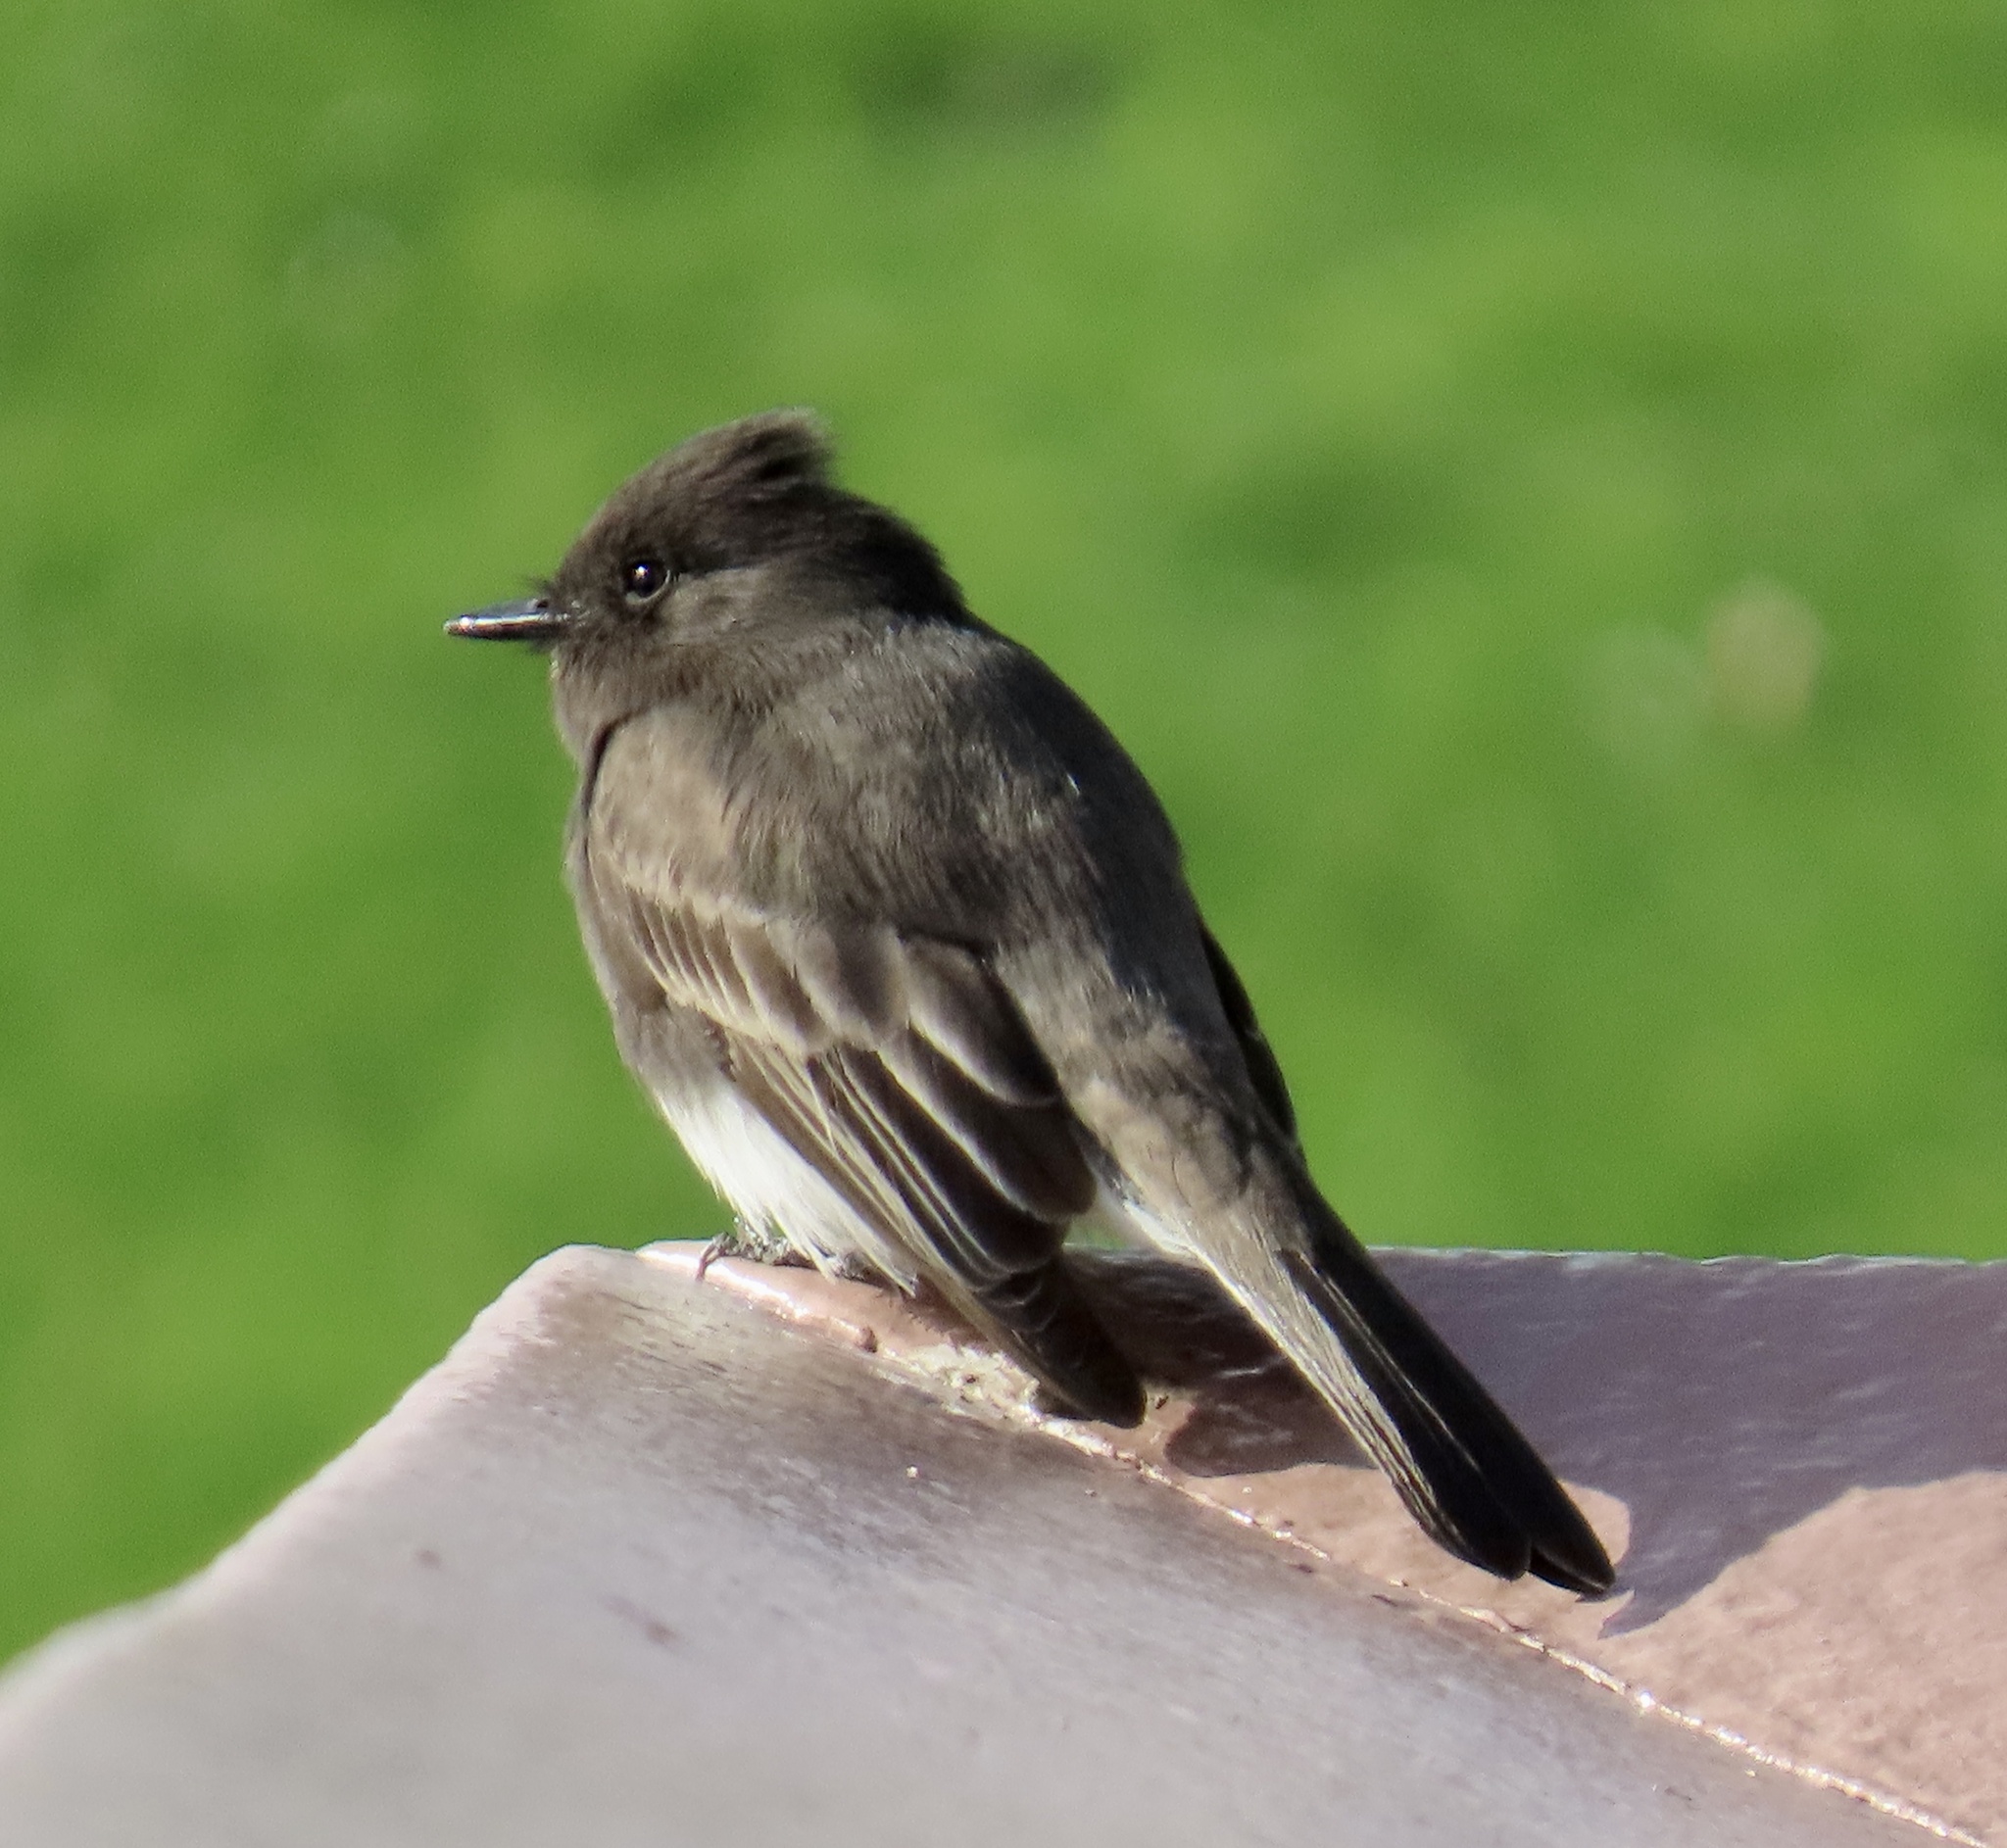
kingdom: Animalia
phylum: Chordata
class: Aves
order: Passeriformes
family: Tyrannidae
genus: Sayornis
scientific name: Sayornis nigricans
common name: Black phoebe
